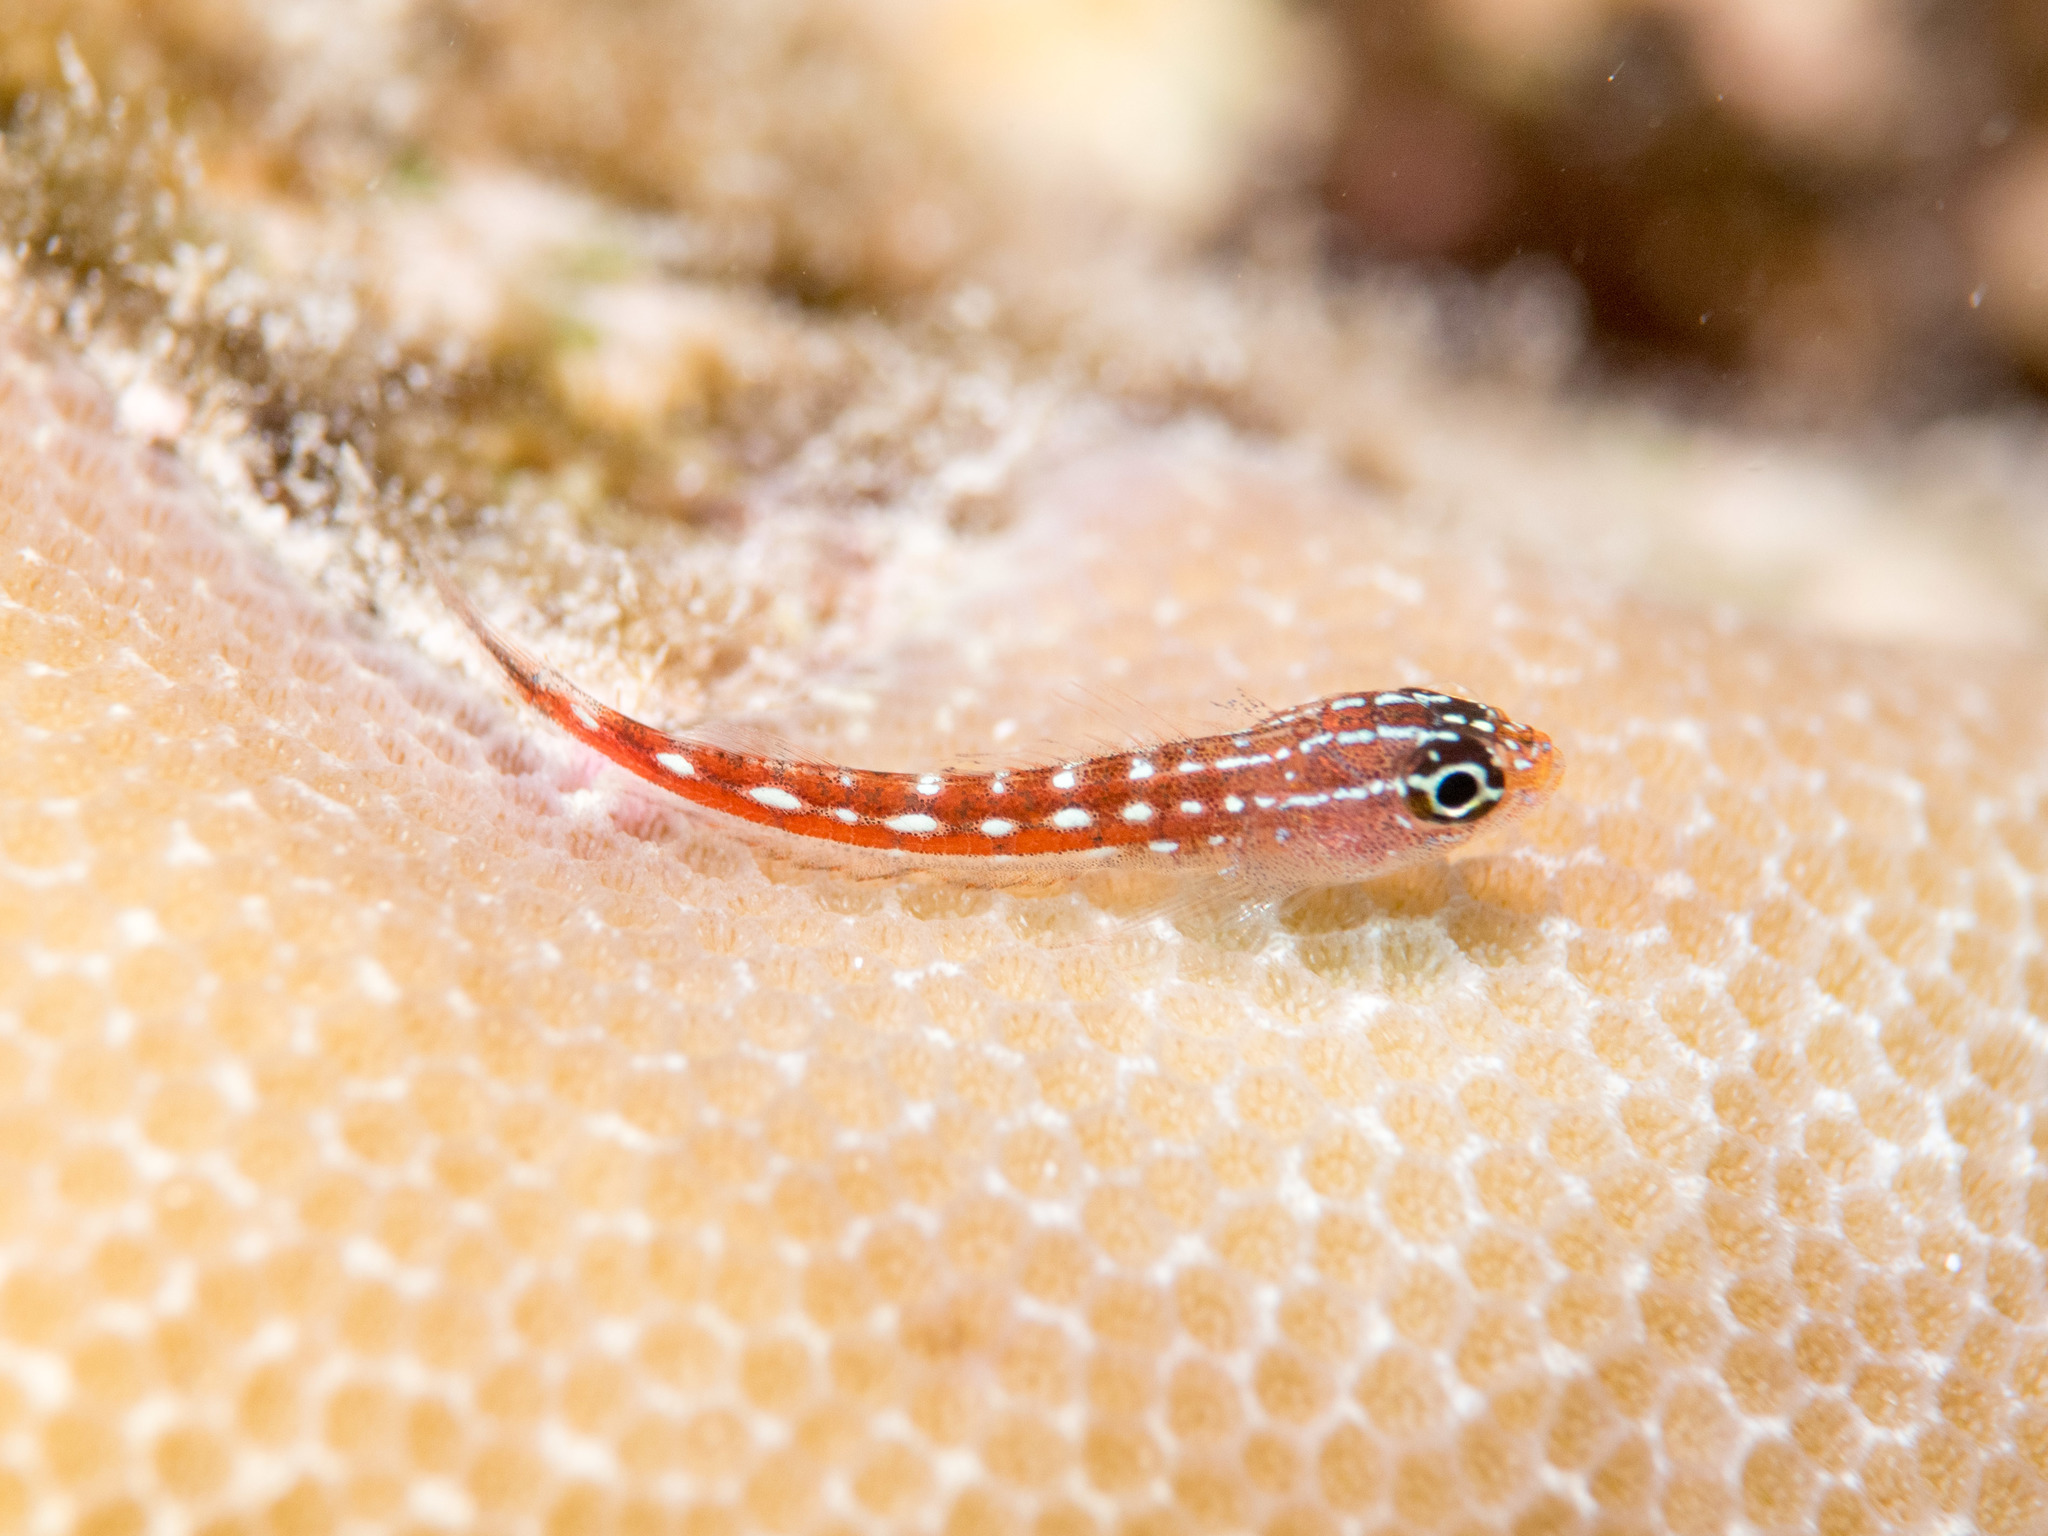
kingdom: Animalia
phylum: Chordata
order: Perciformes
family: Tripterygiidae
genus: Helcogramma
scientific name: Helcogramma maldivensis
